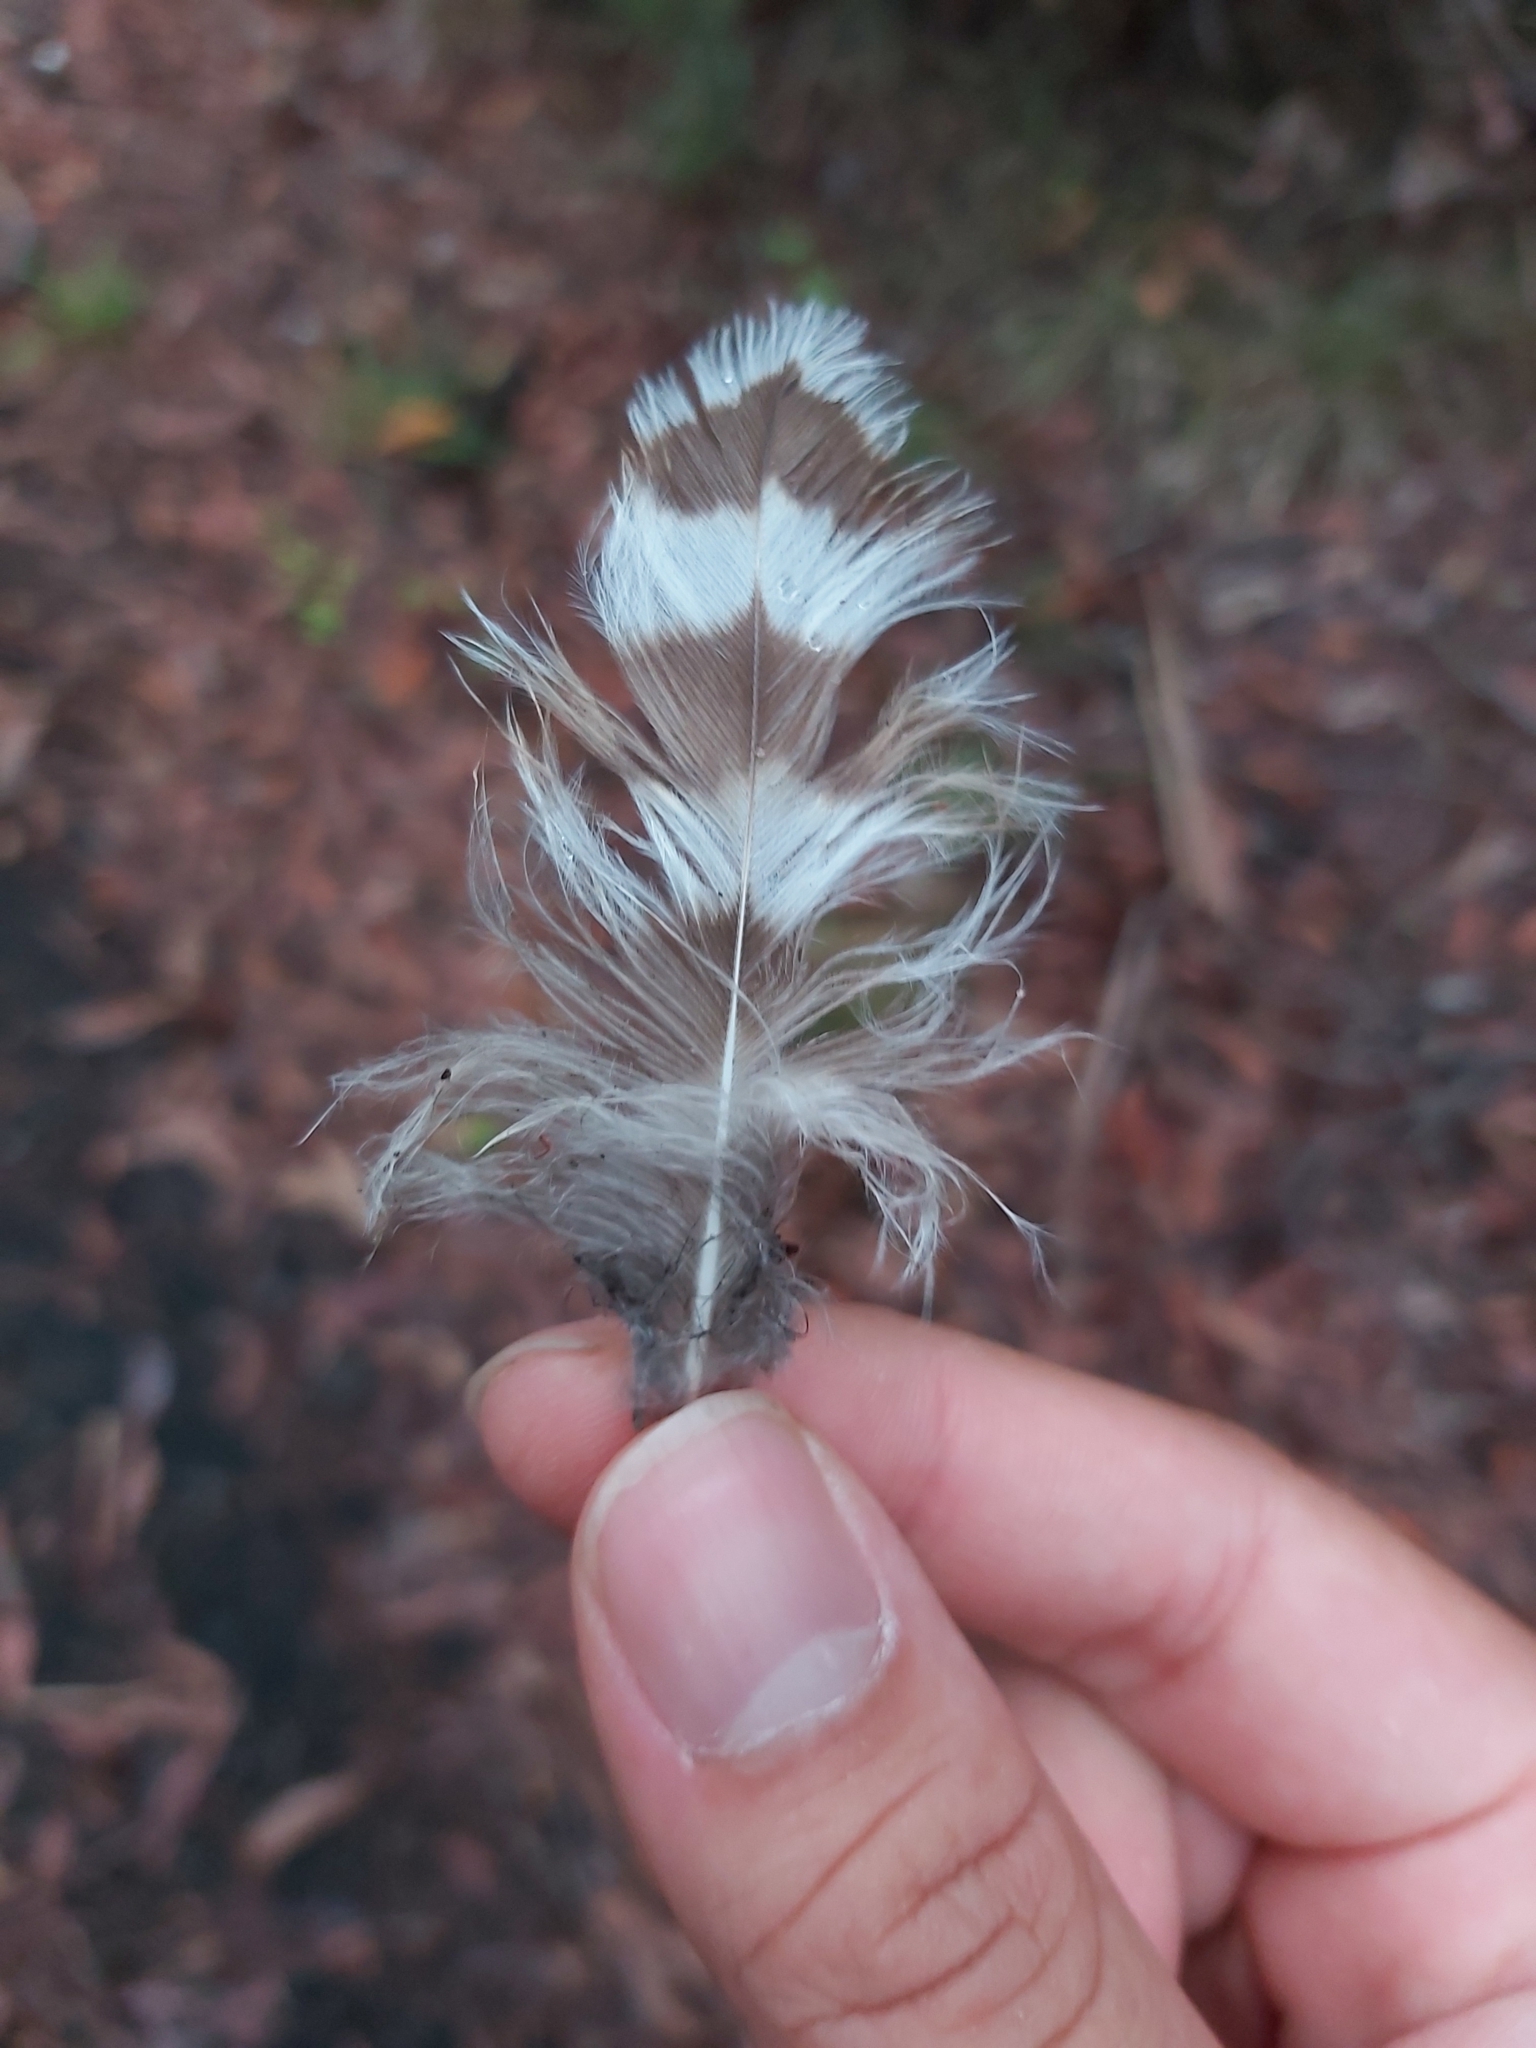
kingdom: Animalia
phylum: Chordata
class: Aves
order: Strigiformes
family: Strigidae
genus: Ninox
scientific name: Ninox strenua
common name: Powerful owl
